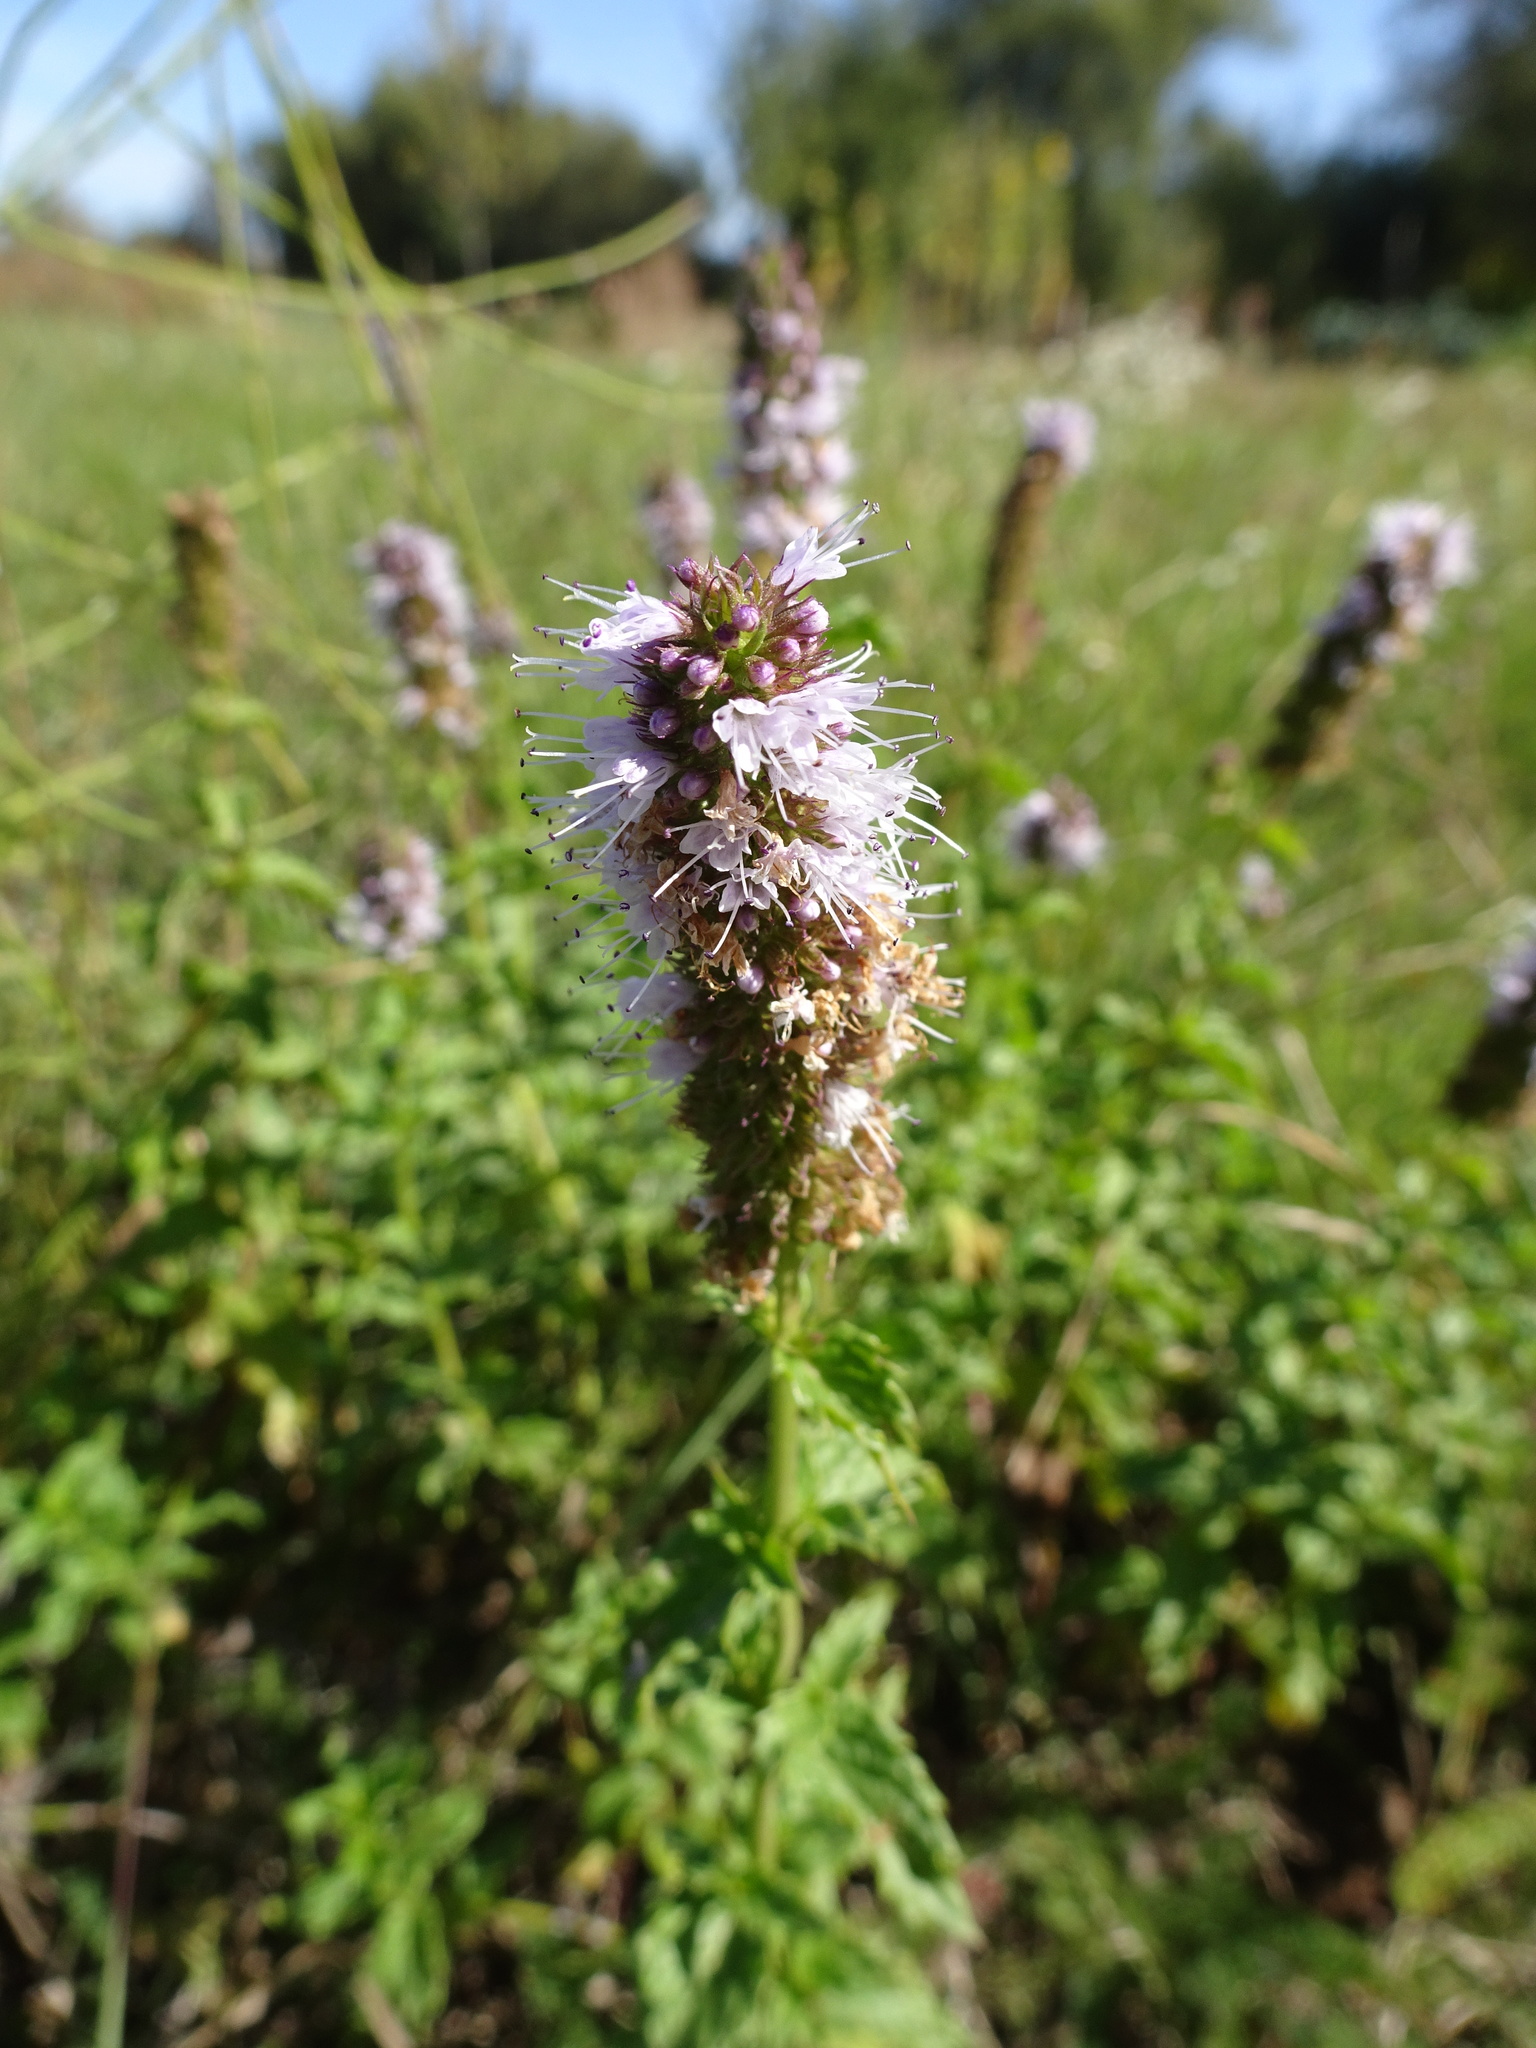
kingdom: Plantae
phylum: Tracheophyta
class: Magnoliopsida
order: Lamiales
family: Lamiaceae
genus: Mentha
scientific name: Mentha spicata
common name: Spearmint
